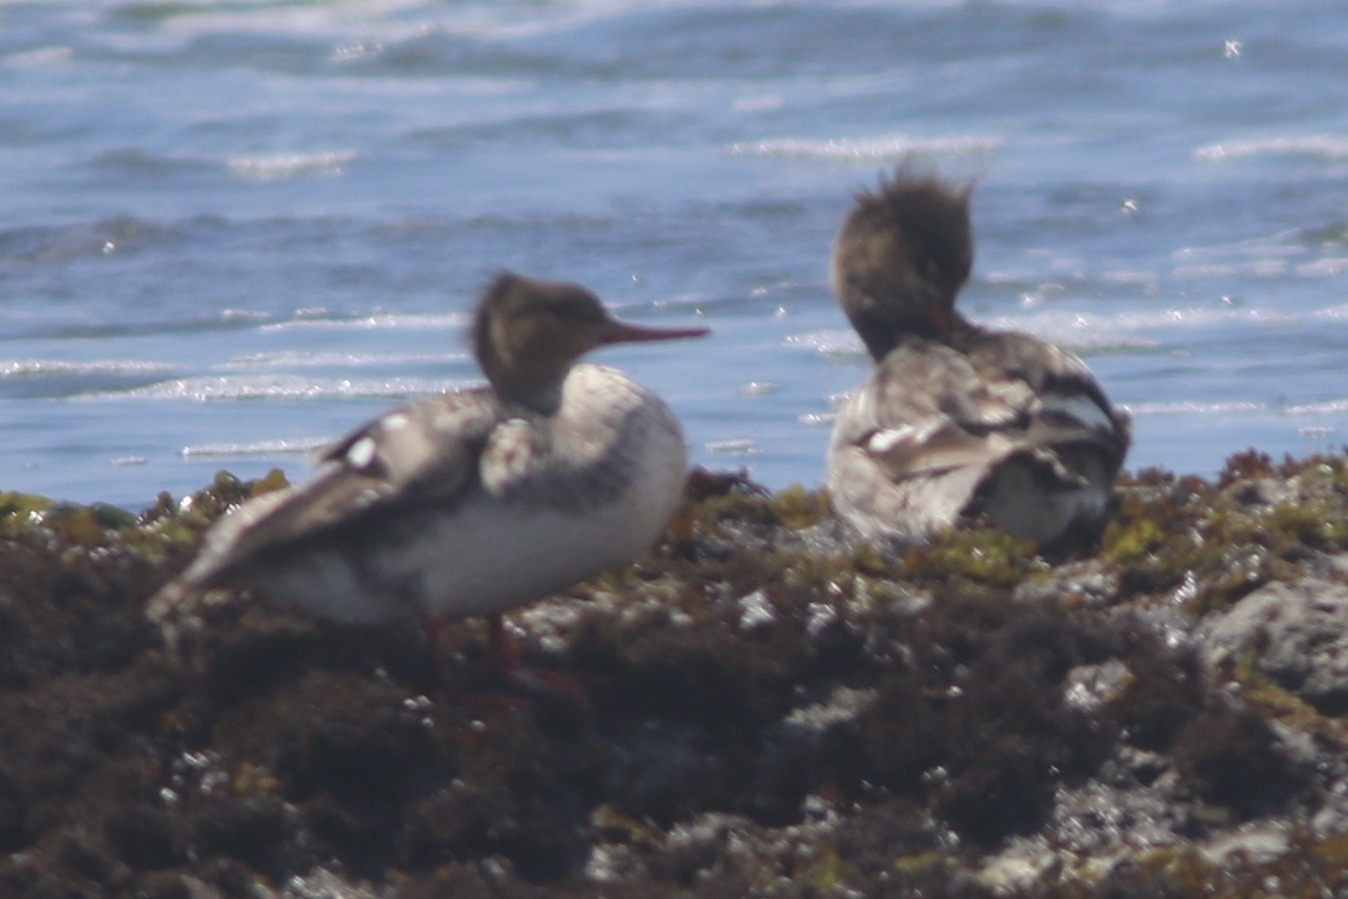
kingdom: Animalia
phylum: Chordata
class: Aves
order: Anseriformes
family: Anatidae
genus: Mergus
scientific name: Mergus serrator
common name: Red-breasted merganser
